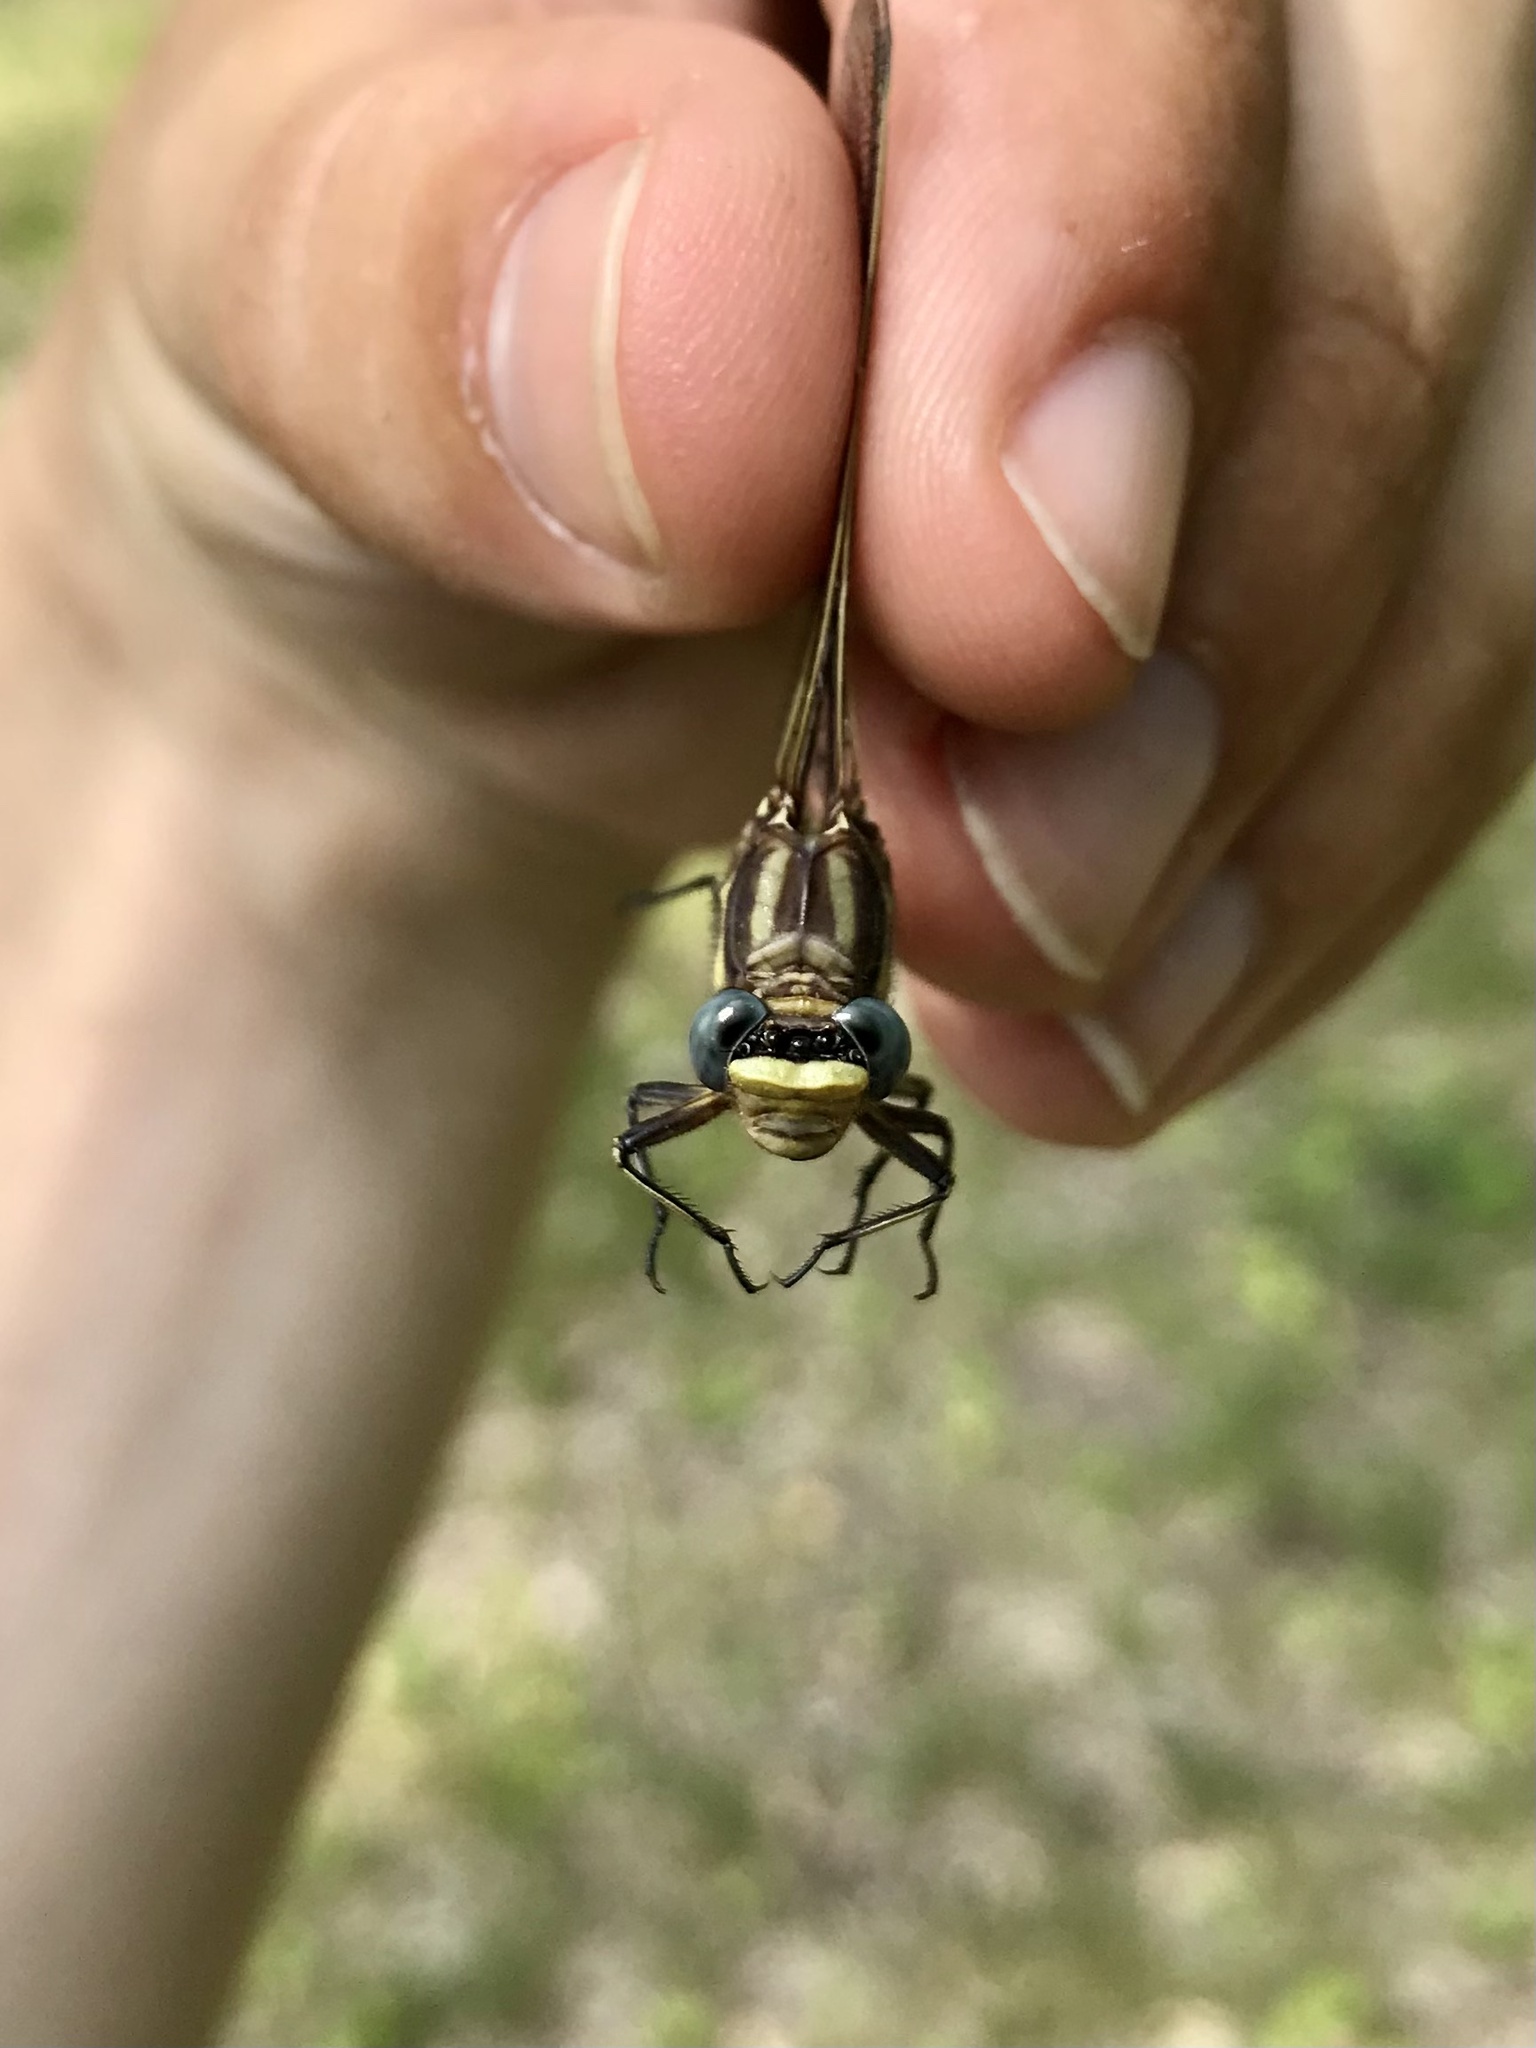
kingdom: Animalia
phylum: Arthropoda
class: Insecta
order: Odonata
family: Gomphidae
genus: Phanogomphus
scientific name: Phanogomphus spicatus
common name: Dusky clubtail
